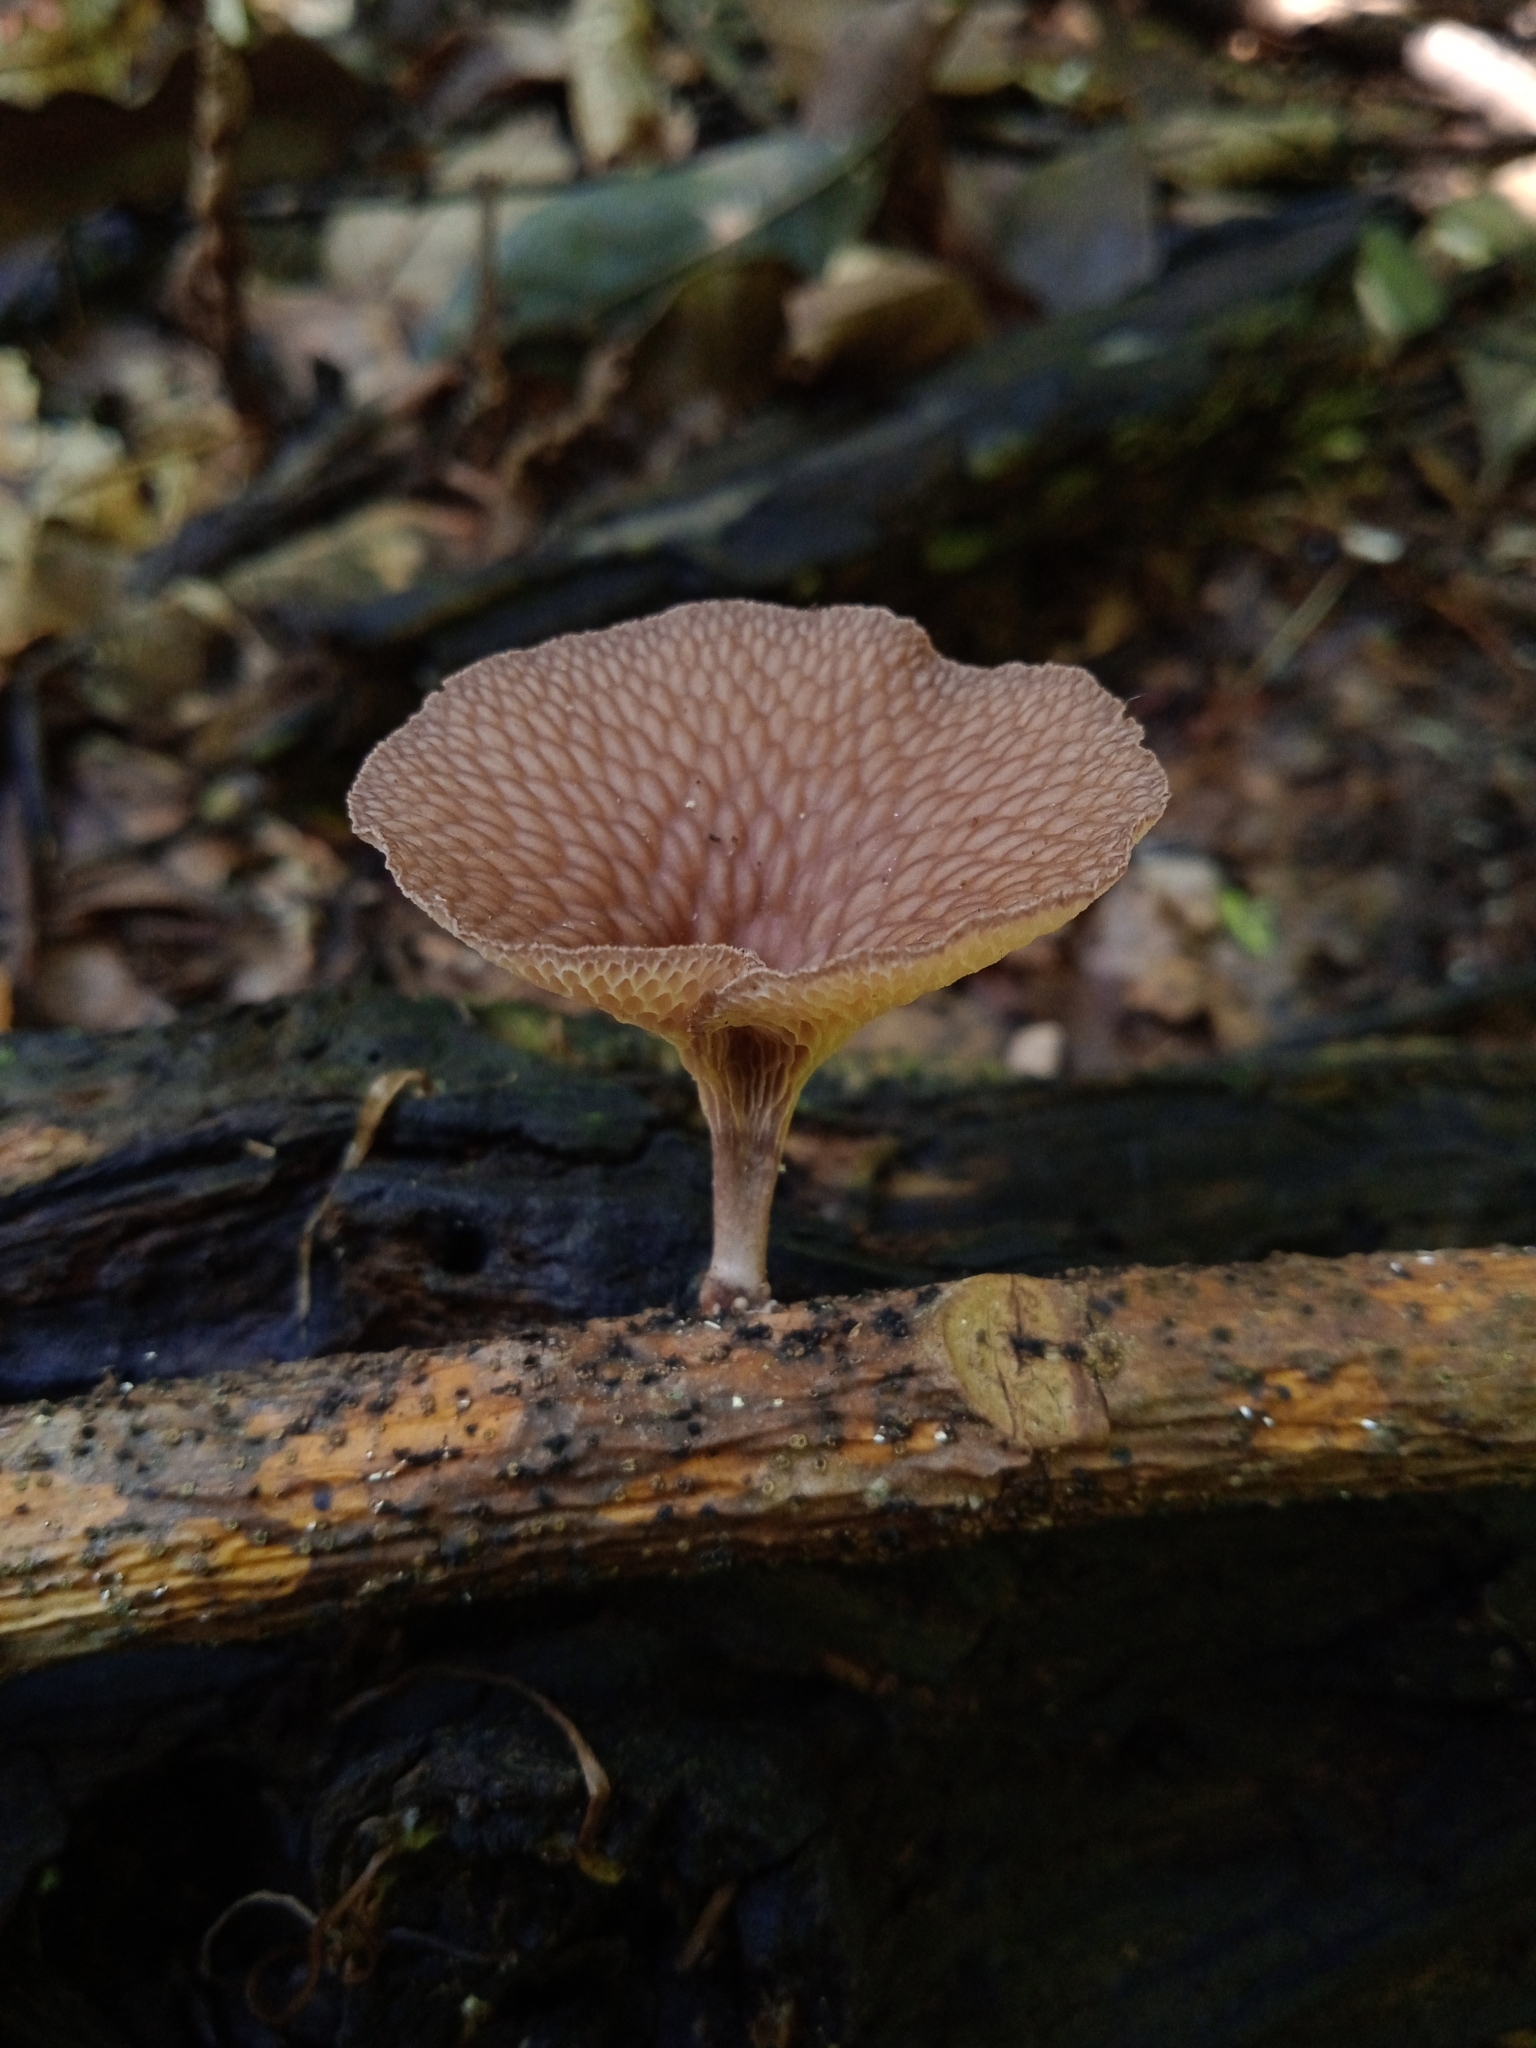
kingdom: Fungi
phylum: Basidiomycota
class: Agaricomycetes
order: Polyporales
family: Polyporaceae
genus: Neofavolus
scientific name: Neofavolus subpurpurascens
